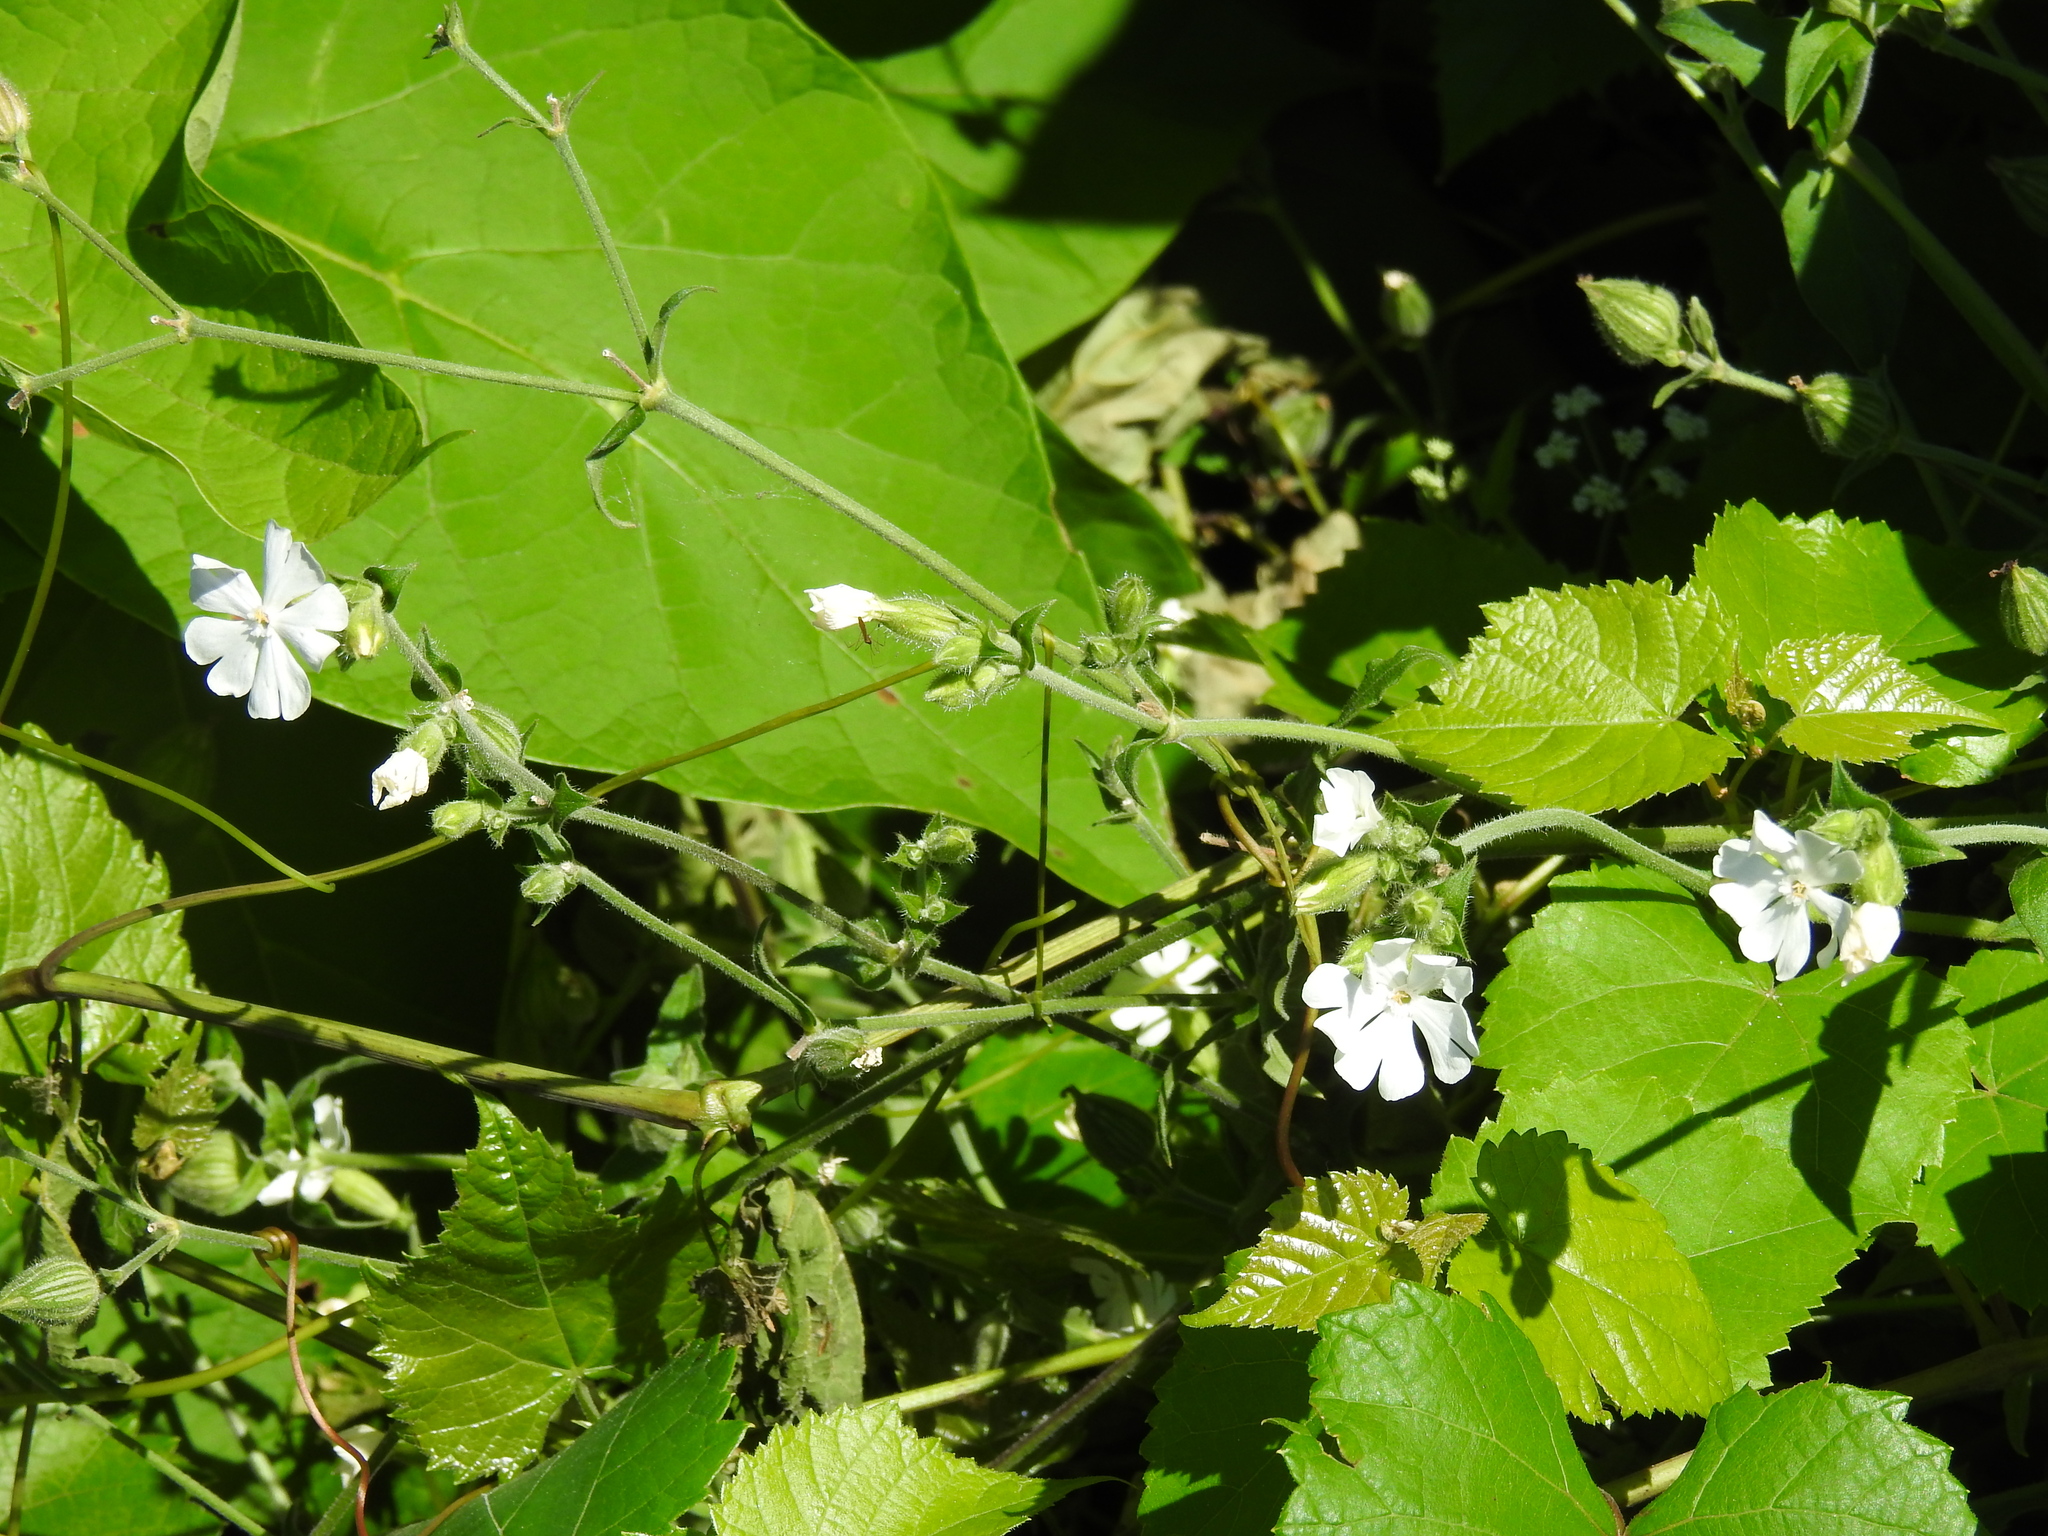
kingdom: Plantae
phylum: Tracheophyta
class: Magnoliopsida
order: Caryophyllales
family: Caryophyllaceae
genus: Silene
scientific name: Silene latifolia
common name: White campion
